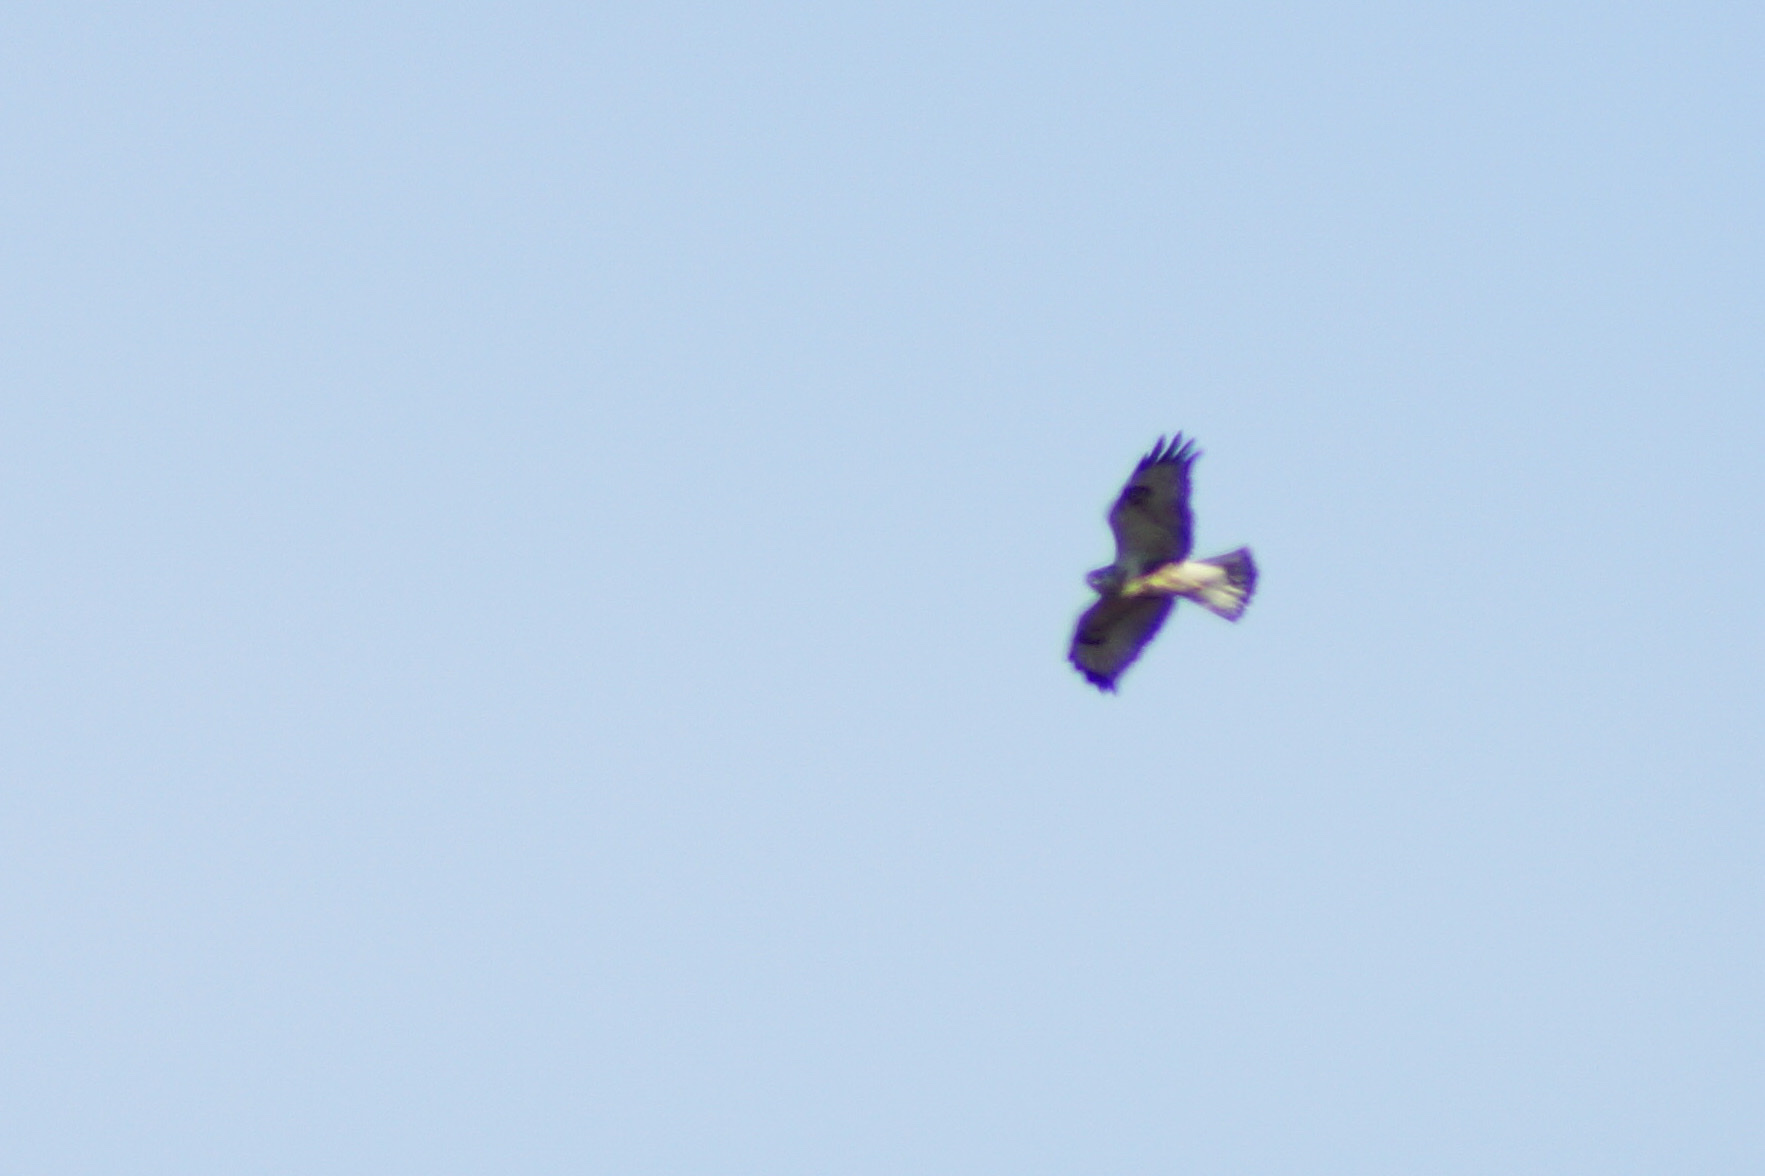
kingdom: Animalia
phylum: Chordata
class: Aves
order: Accipitriformes
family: Accipitridae
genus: Buteo
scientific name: Buteo buteo
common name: Common buzzard
